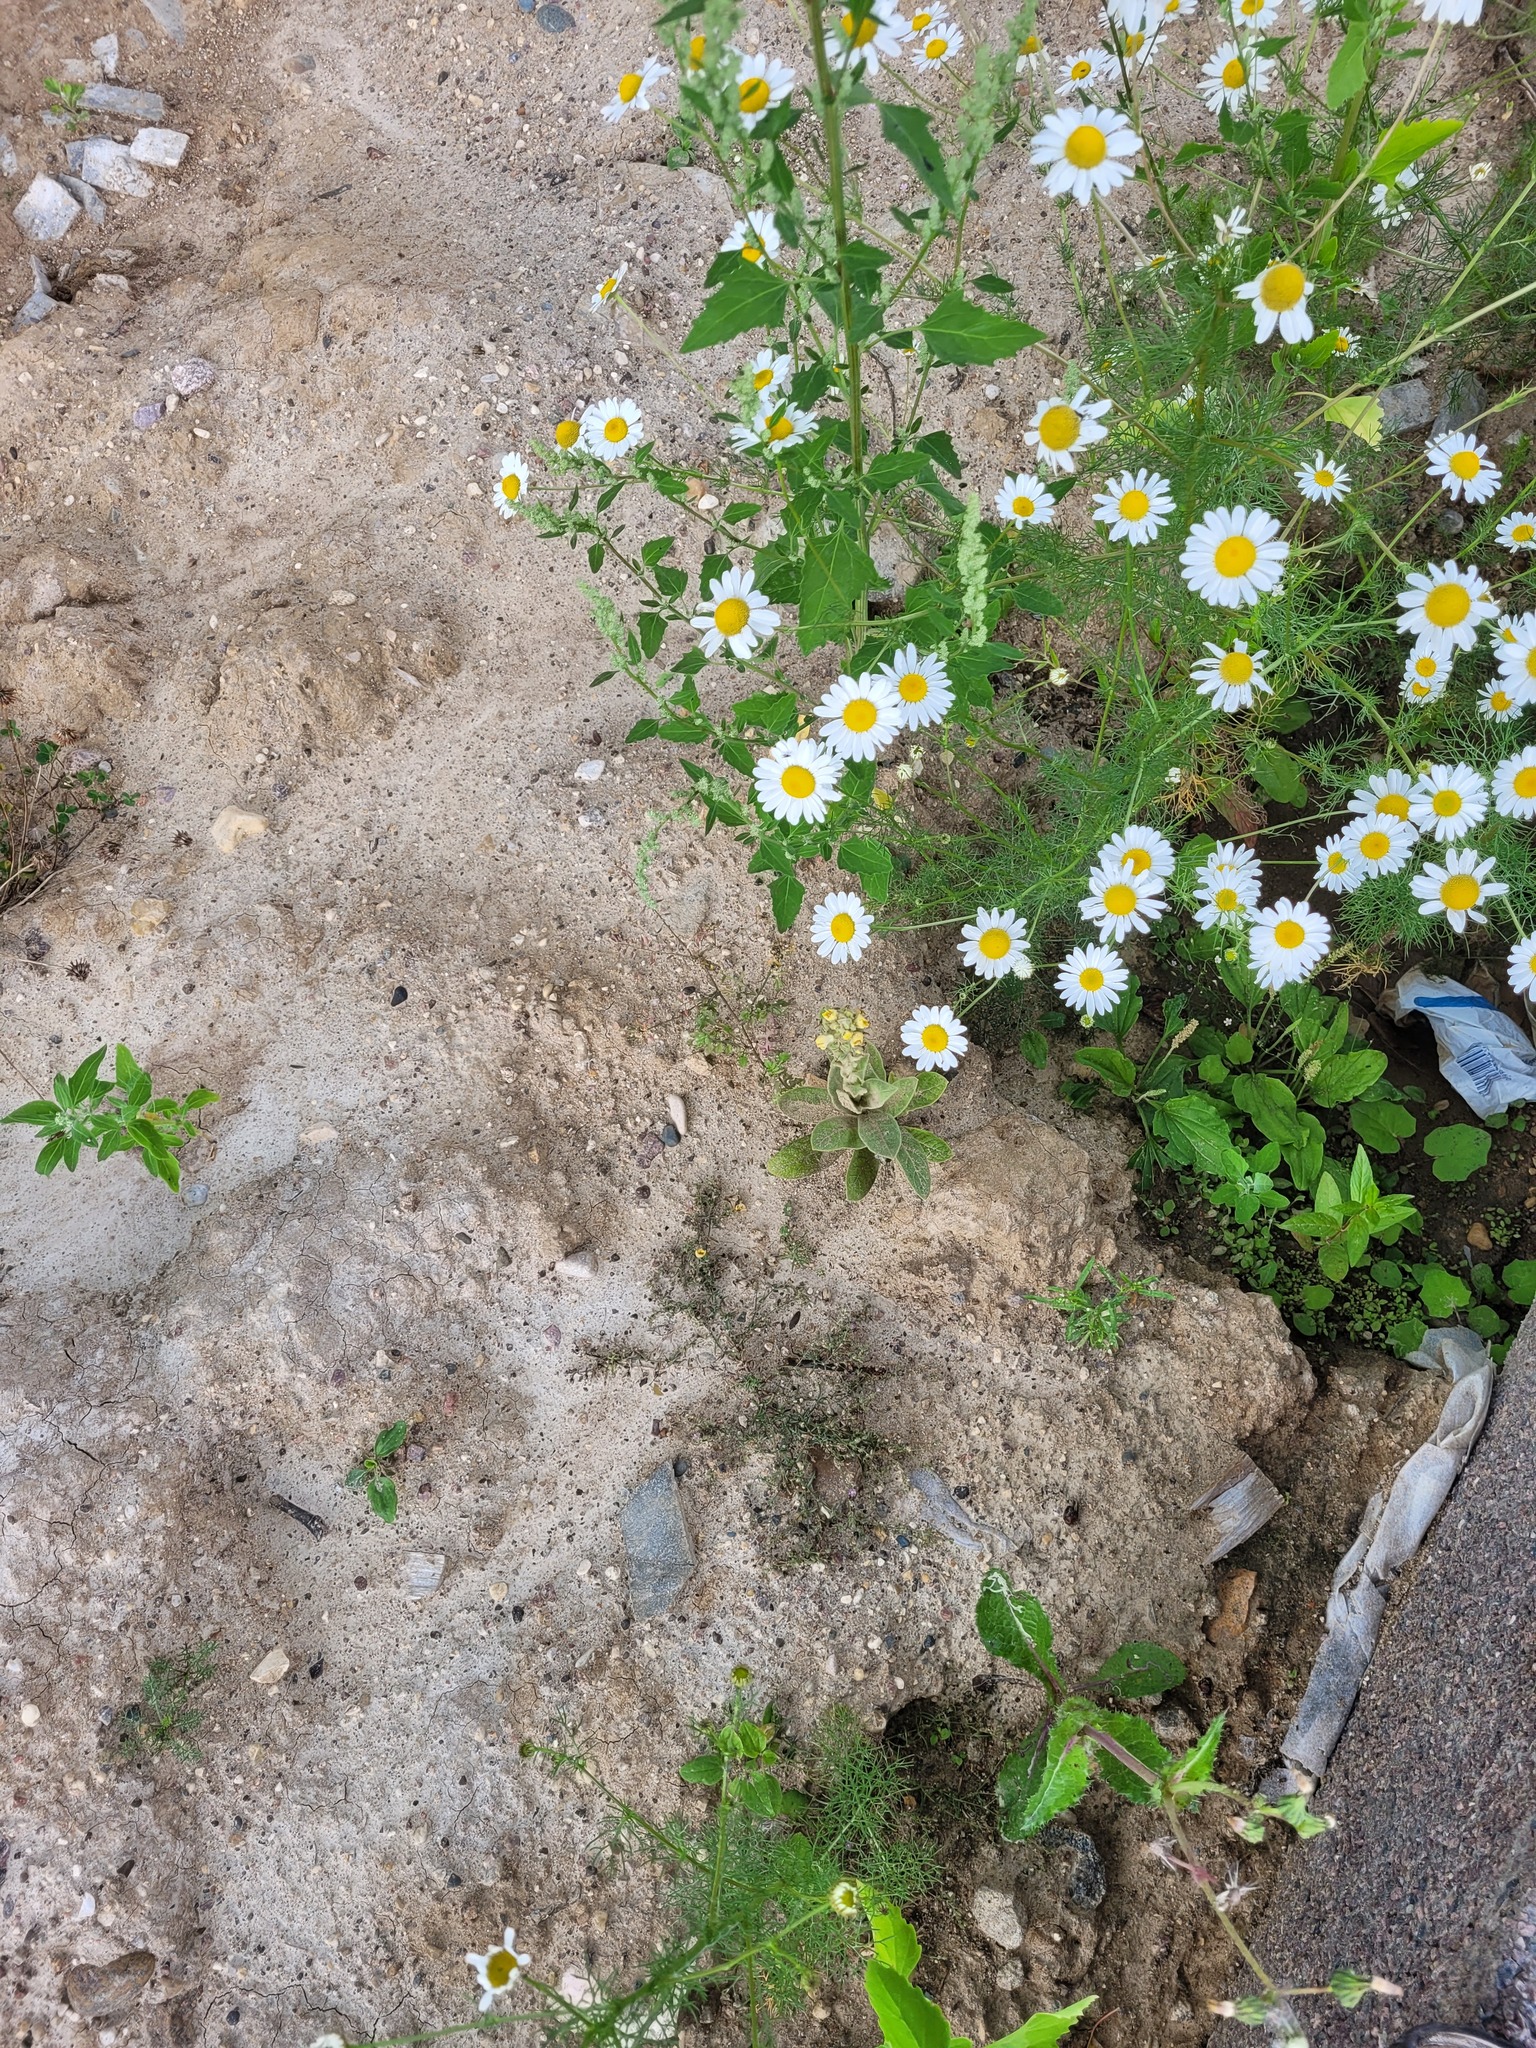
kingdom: Plantae
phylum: Tracheophyta
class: Magnoliopsida
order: Lamiales
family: Scrophulariaceae
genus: Verbascum
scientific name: Verbascum thapsus
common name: Common mullein
